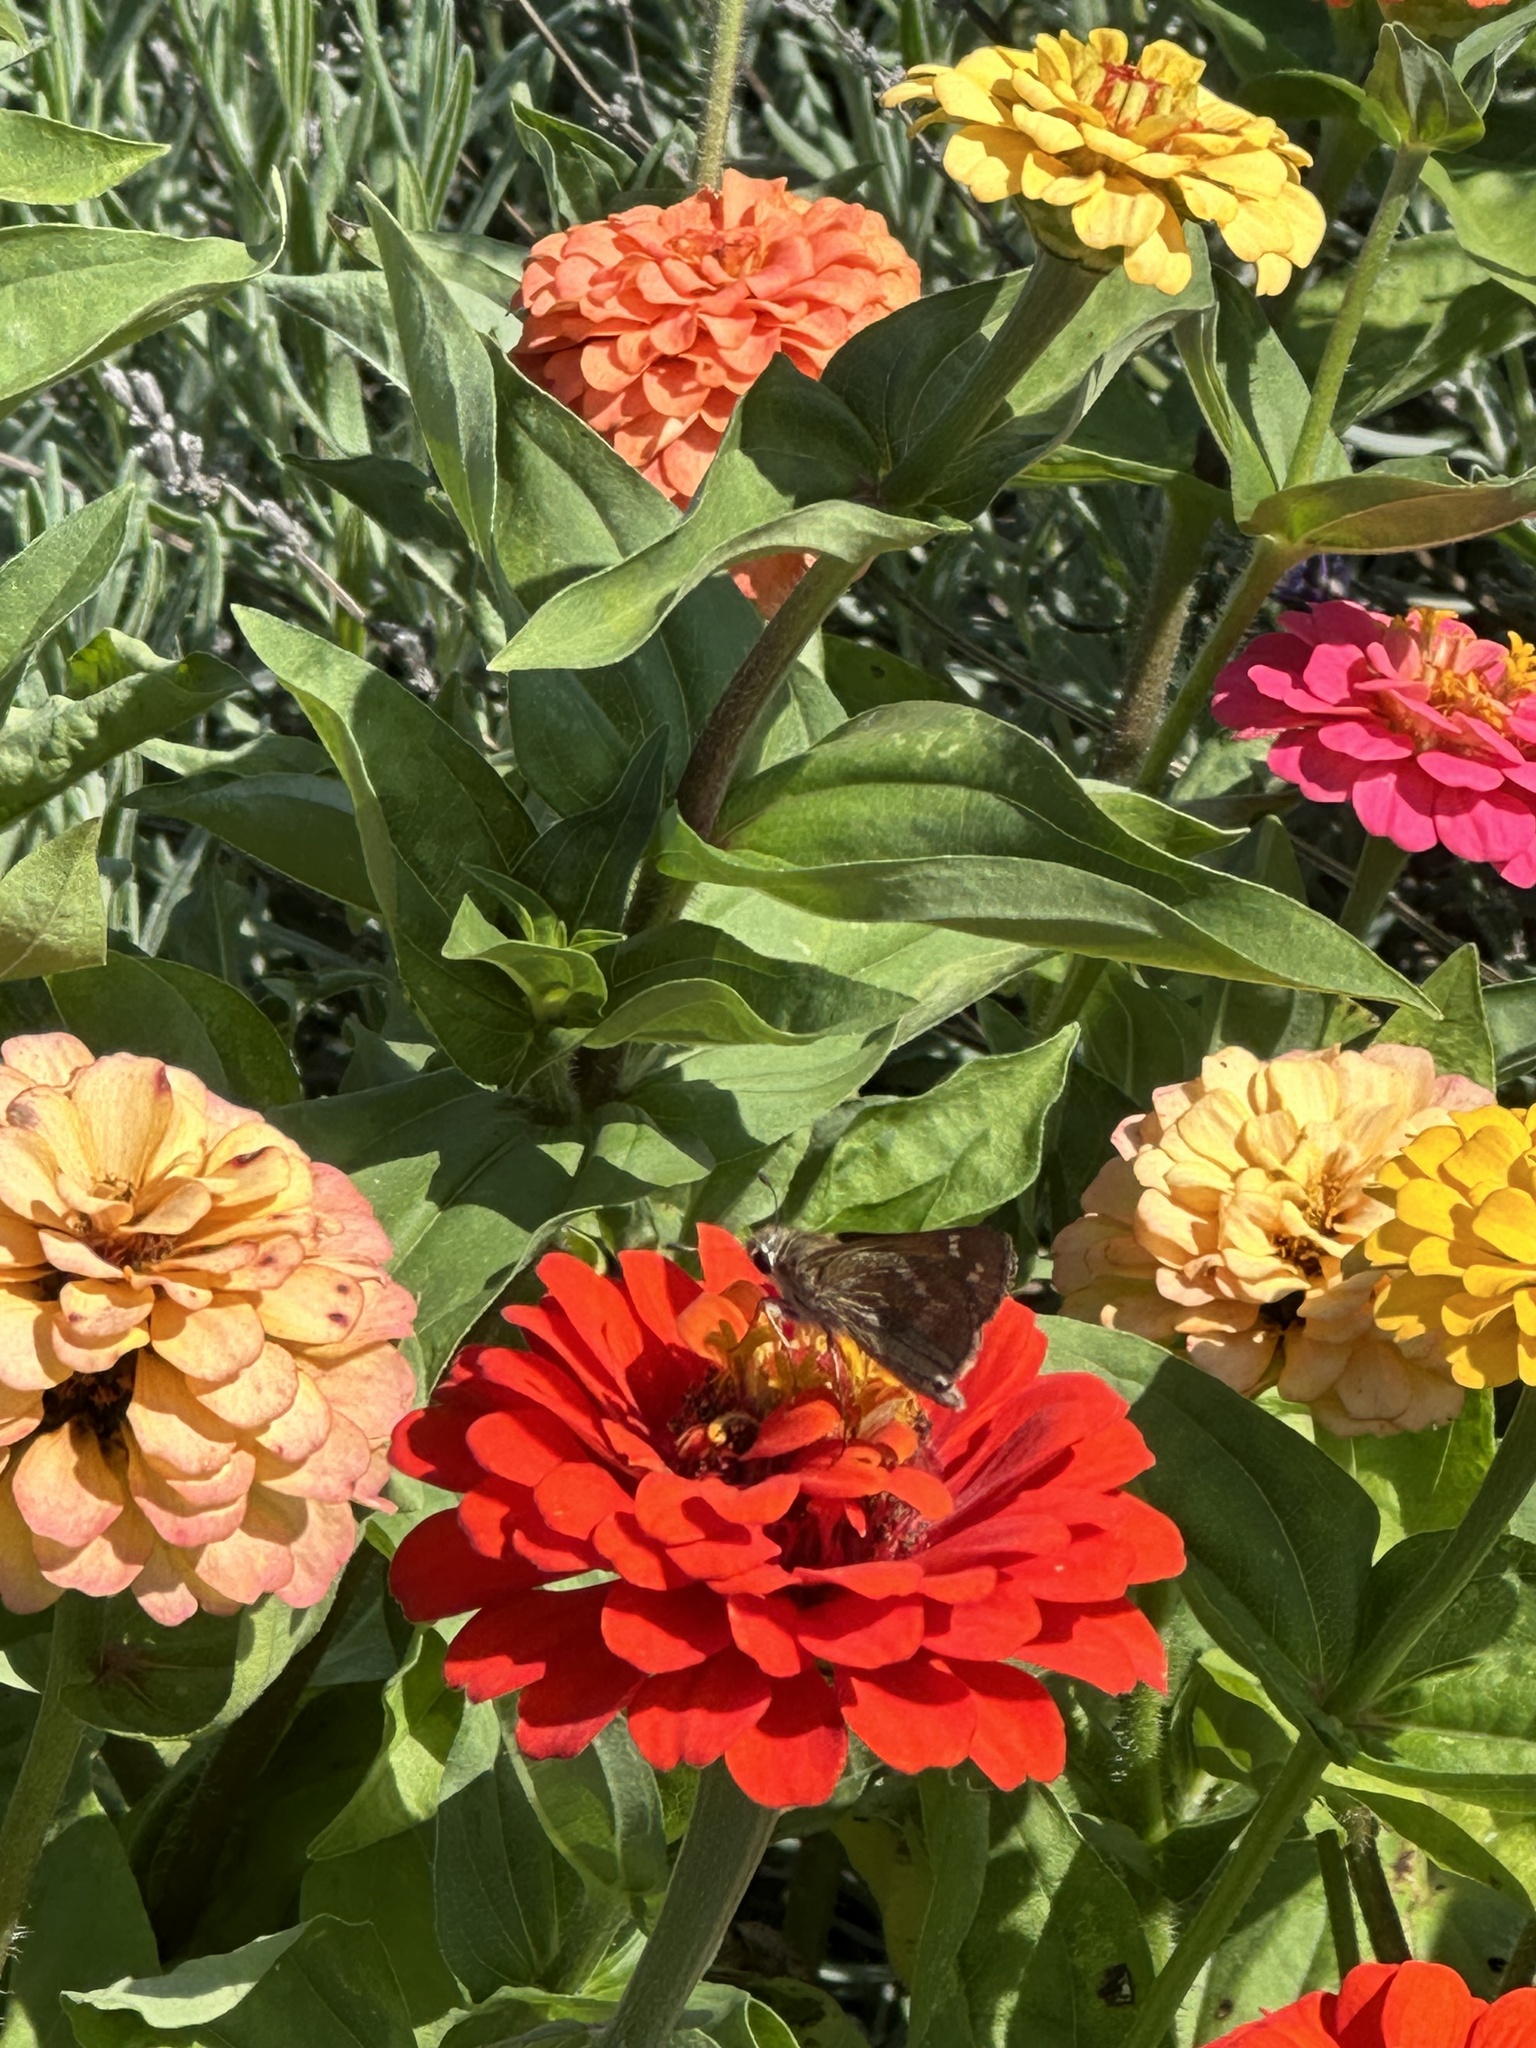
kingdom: Animalia
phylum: Arthropoda
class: Insecta
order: Lepidoptera
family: Hesperiidae
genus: Atalopedes
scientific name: Atalopedes
